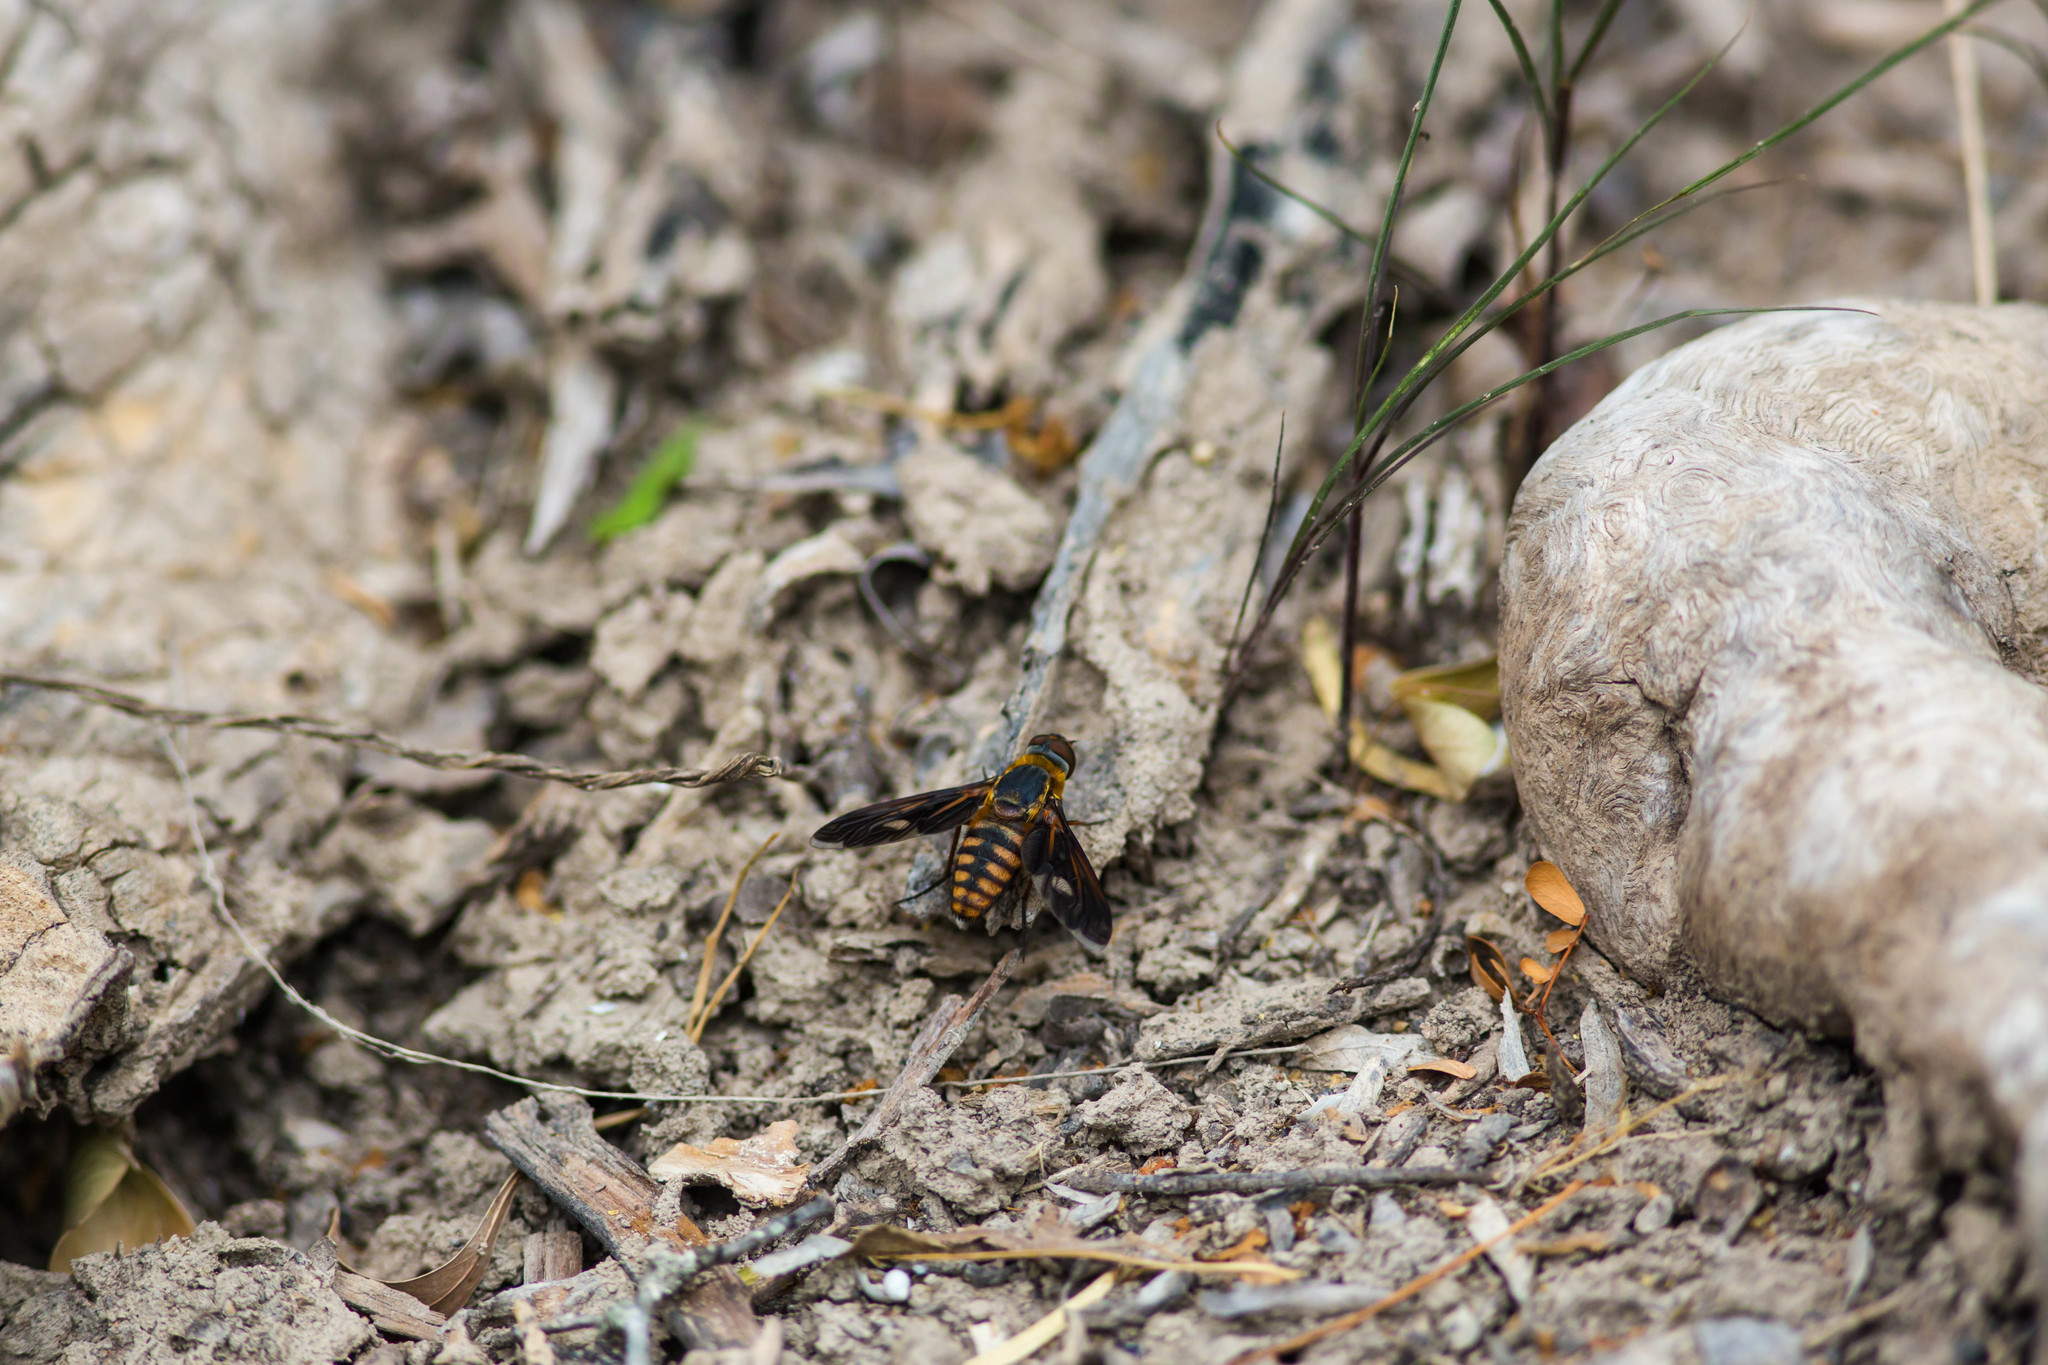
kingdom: Animalia
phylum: Arthropoda
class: Insecta
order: Diptera
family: Bombyliidae
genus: Poecilanthrax
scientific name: Poecilanthrax effrenus
